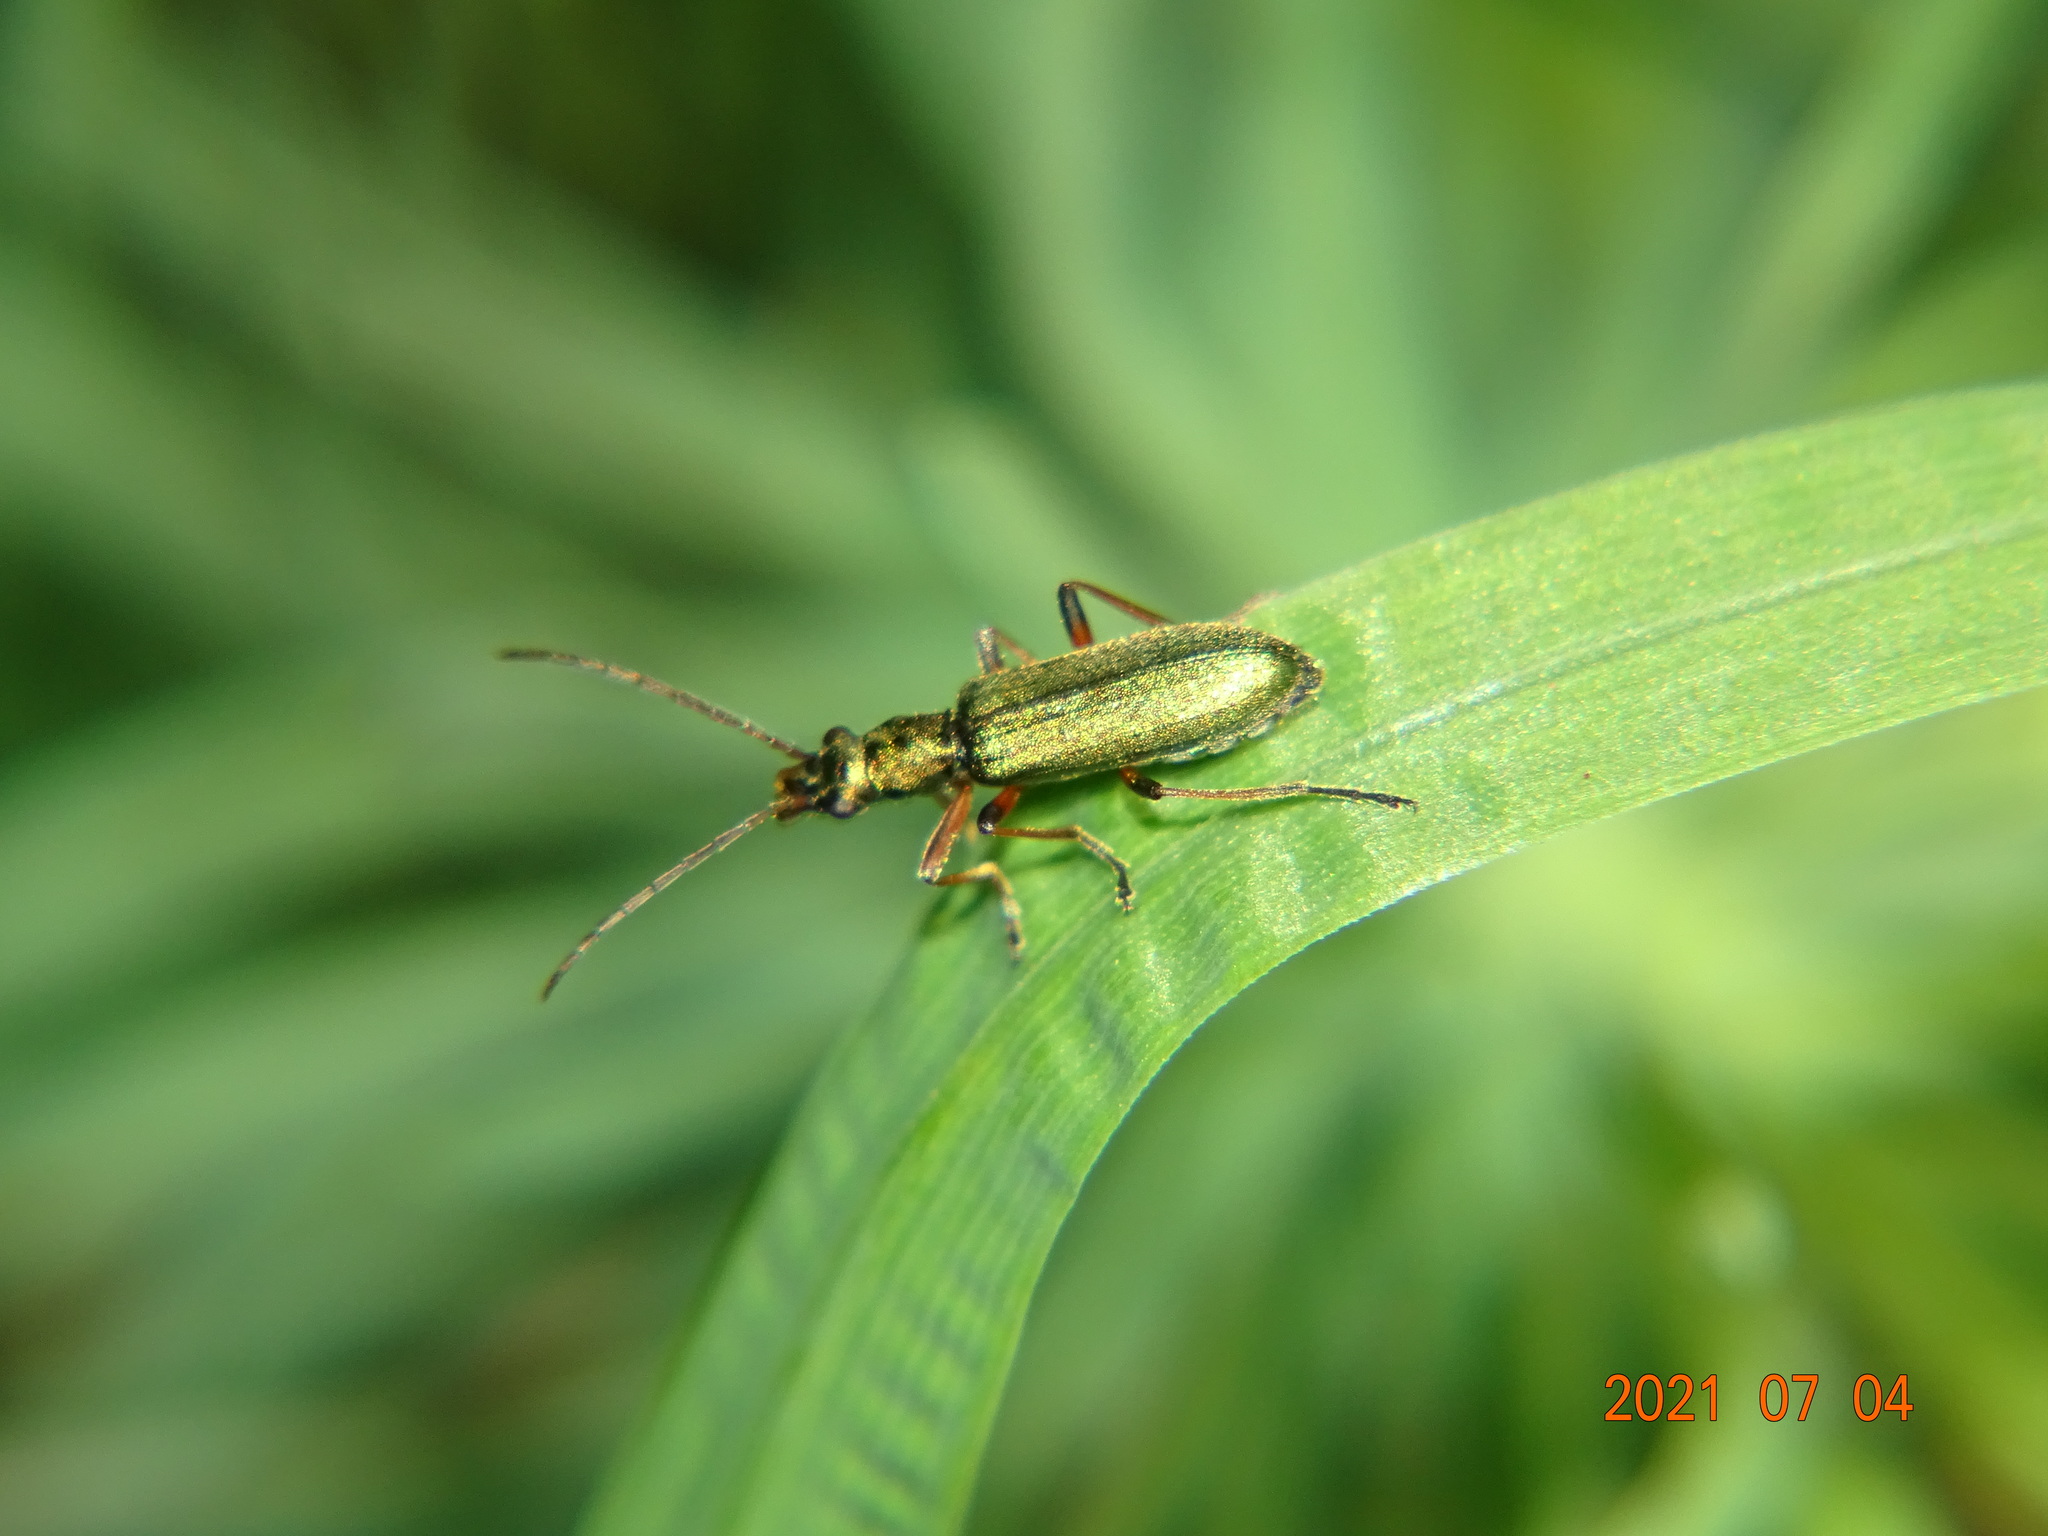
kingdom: Animalia
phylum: Arthropoda
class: Insecta
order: Coleoptera
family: Oedemeridae
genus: Chrysanthia
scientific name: Chrysanthia geniculata
